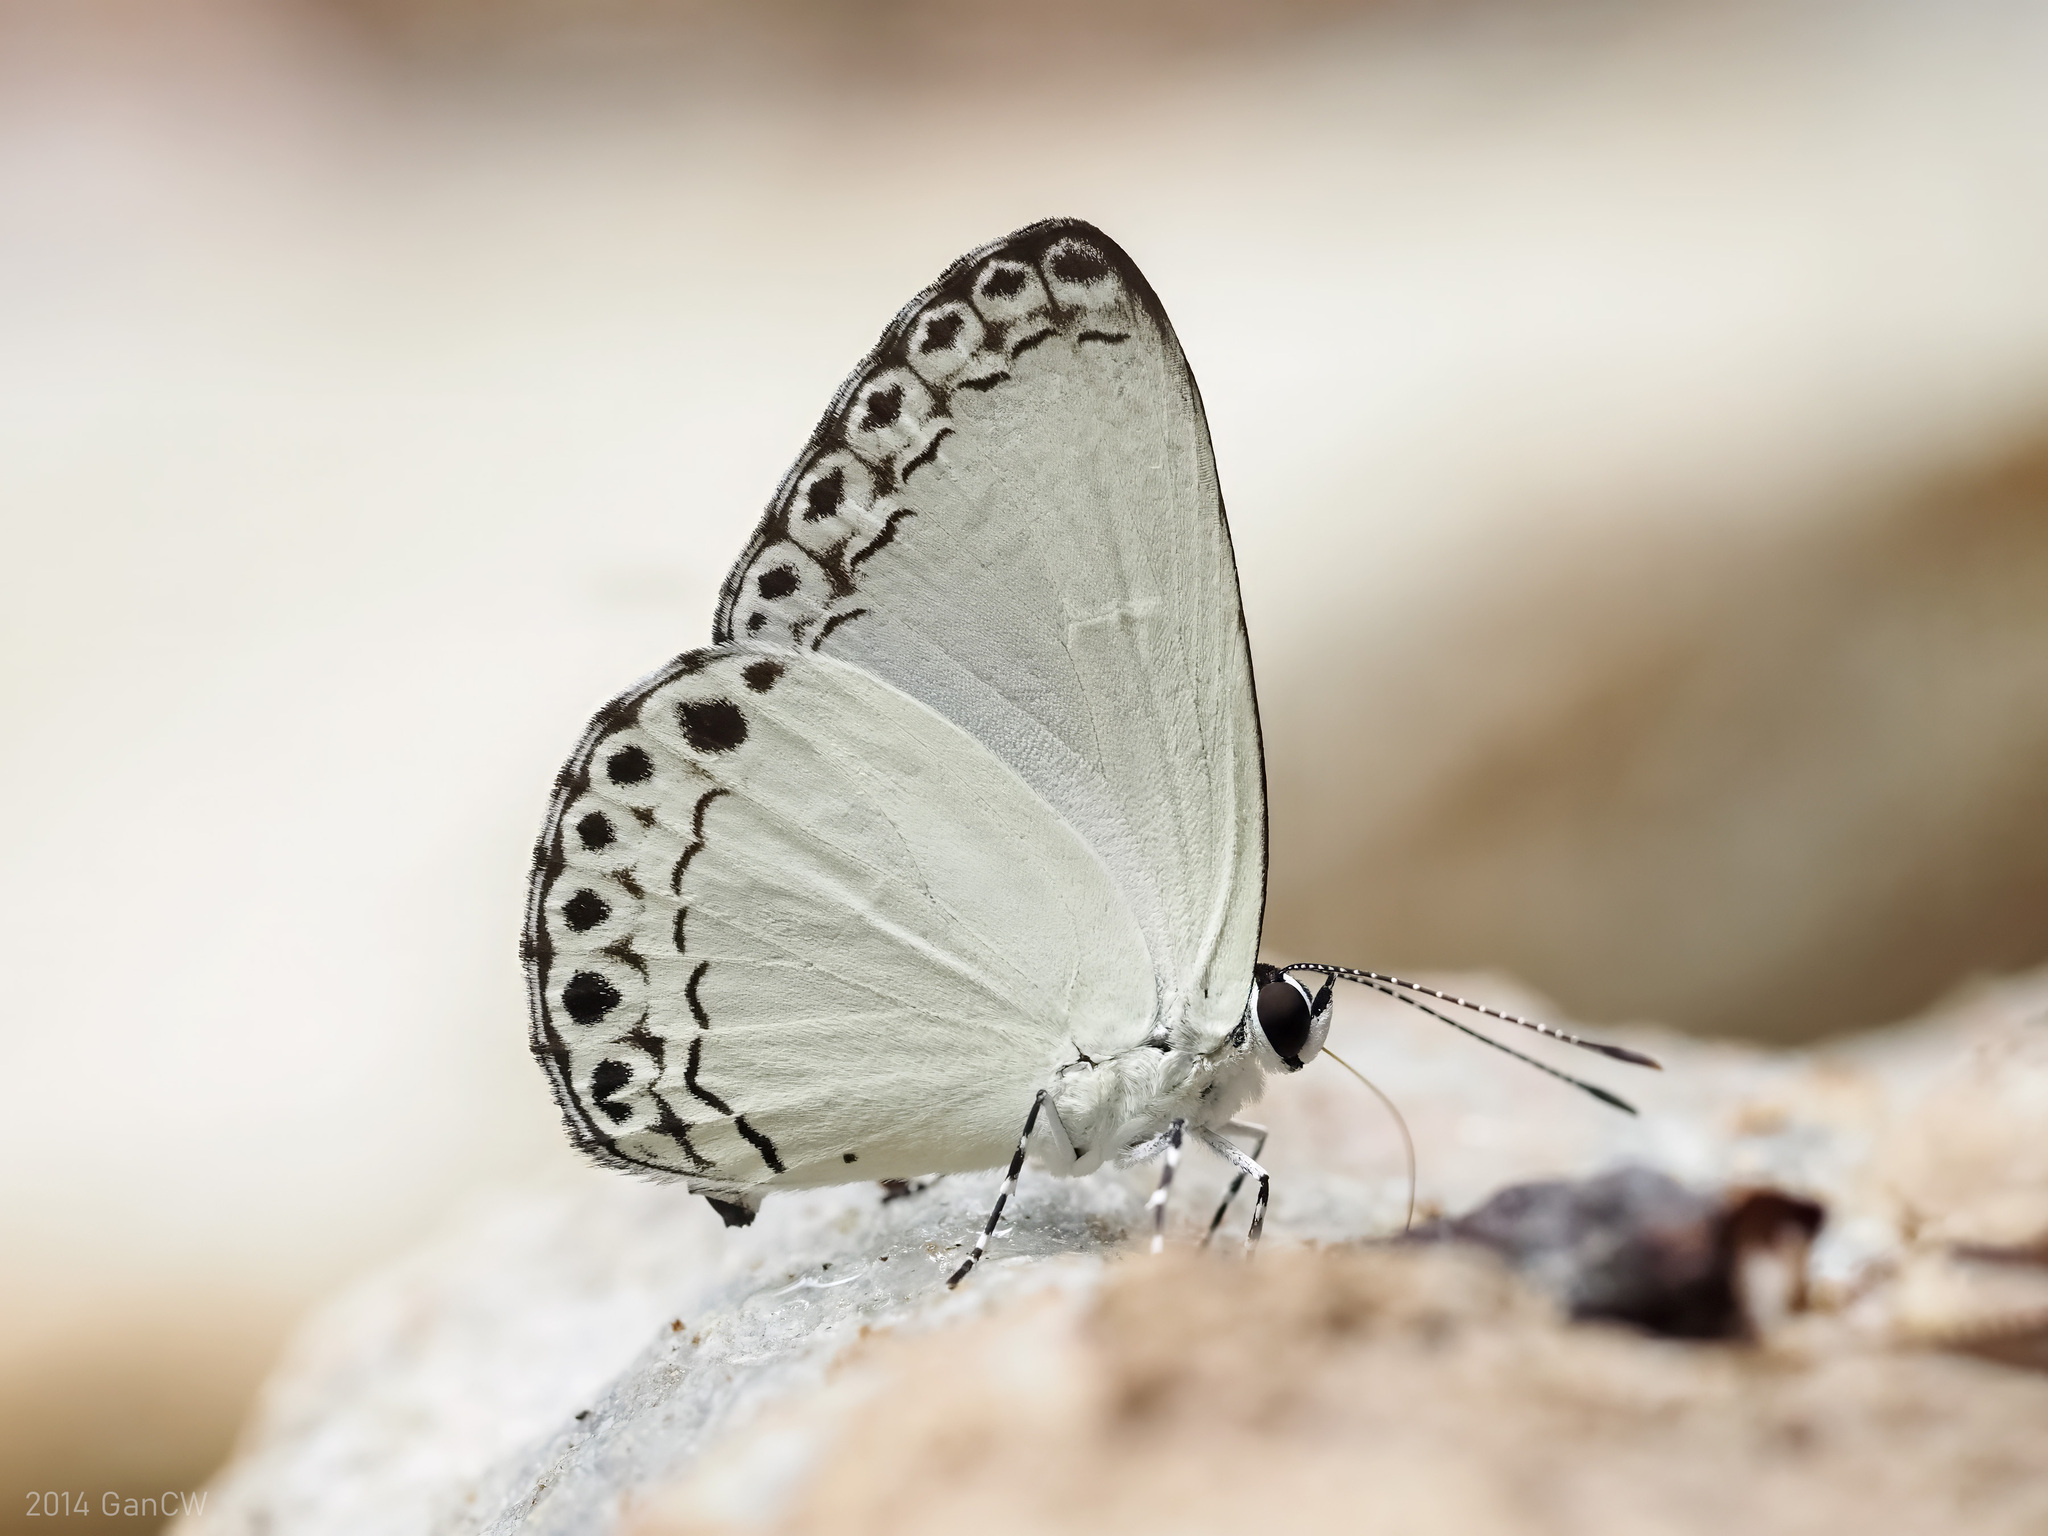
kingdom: Animalia
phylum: Arthropoda
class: Insecta
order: Lepidoptera
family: Lycaenidae
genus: Lycaenopsis
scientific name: Lycaenopsis haraldus
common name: Felder's hedge blue
